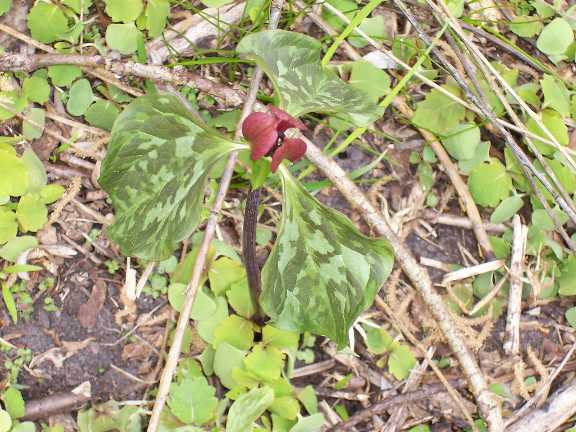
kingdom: Plantae
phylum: Tracheophyta
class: Liliopsida
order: Liliales
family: Melanthiaceae
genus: Trillium
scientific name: Trillium recurvatum
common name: Bloody butcher
